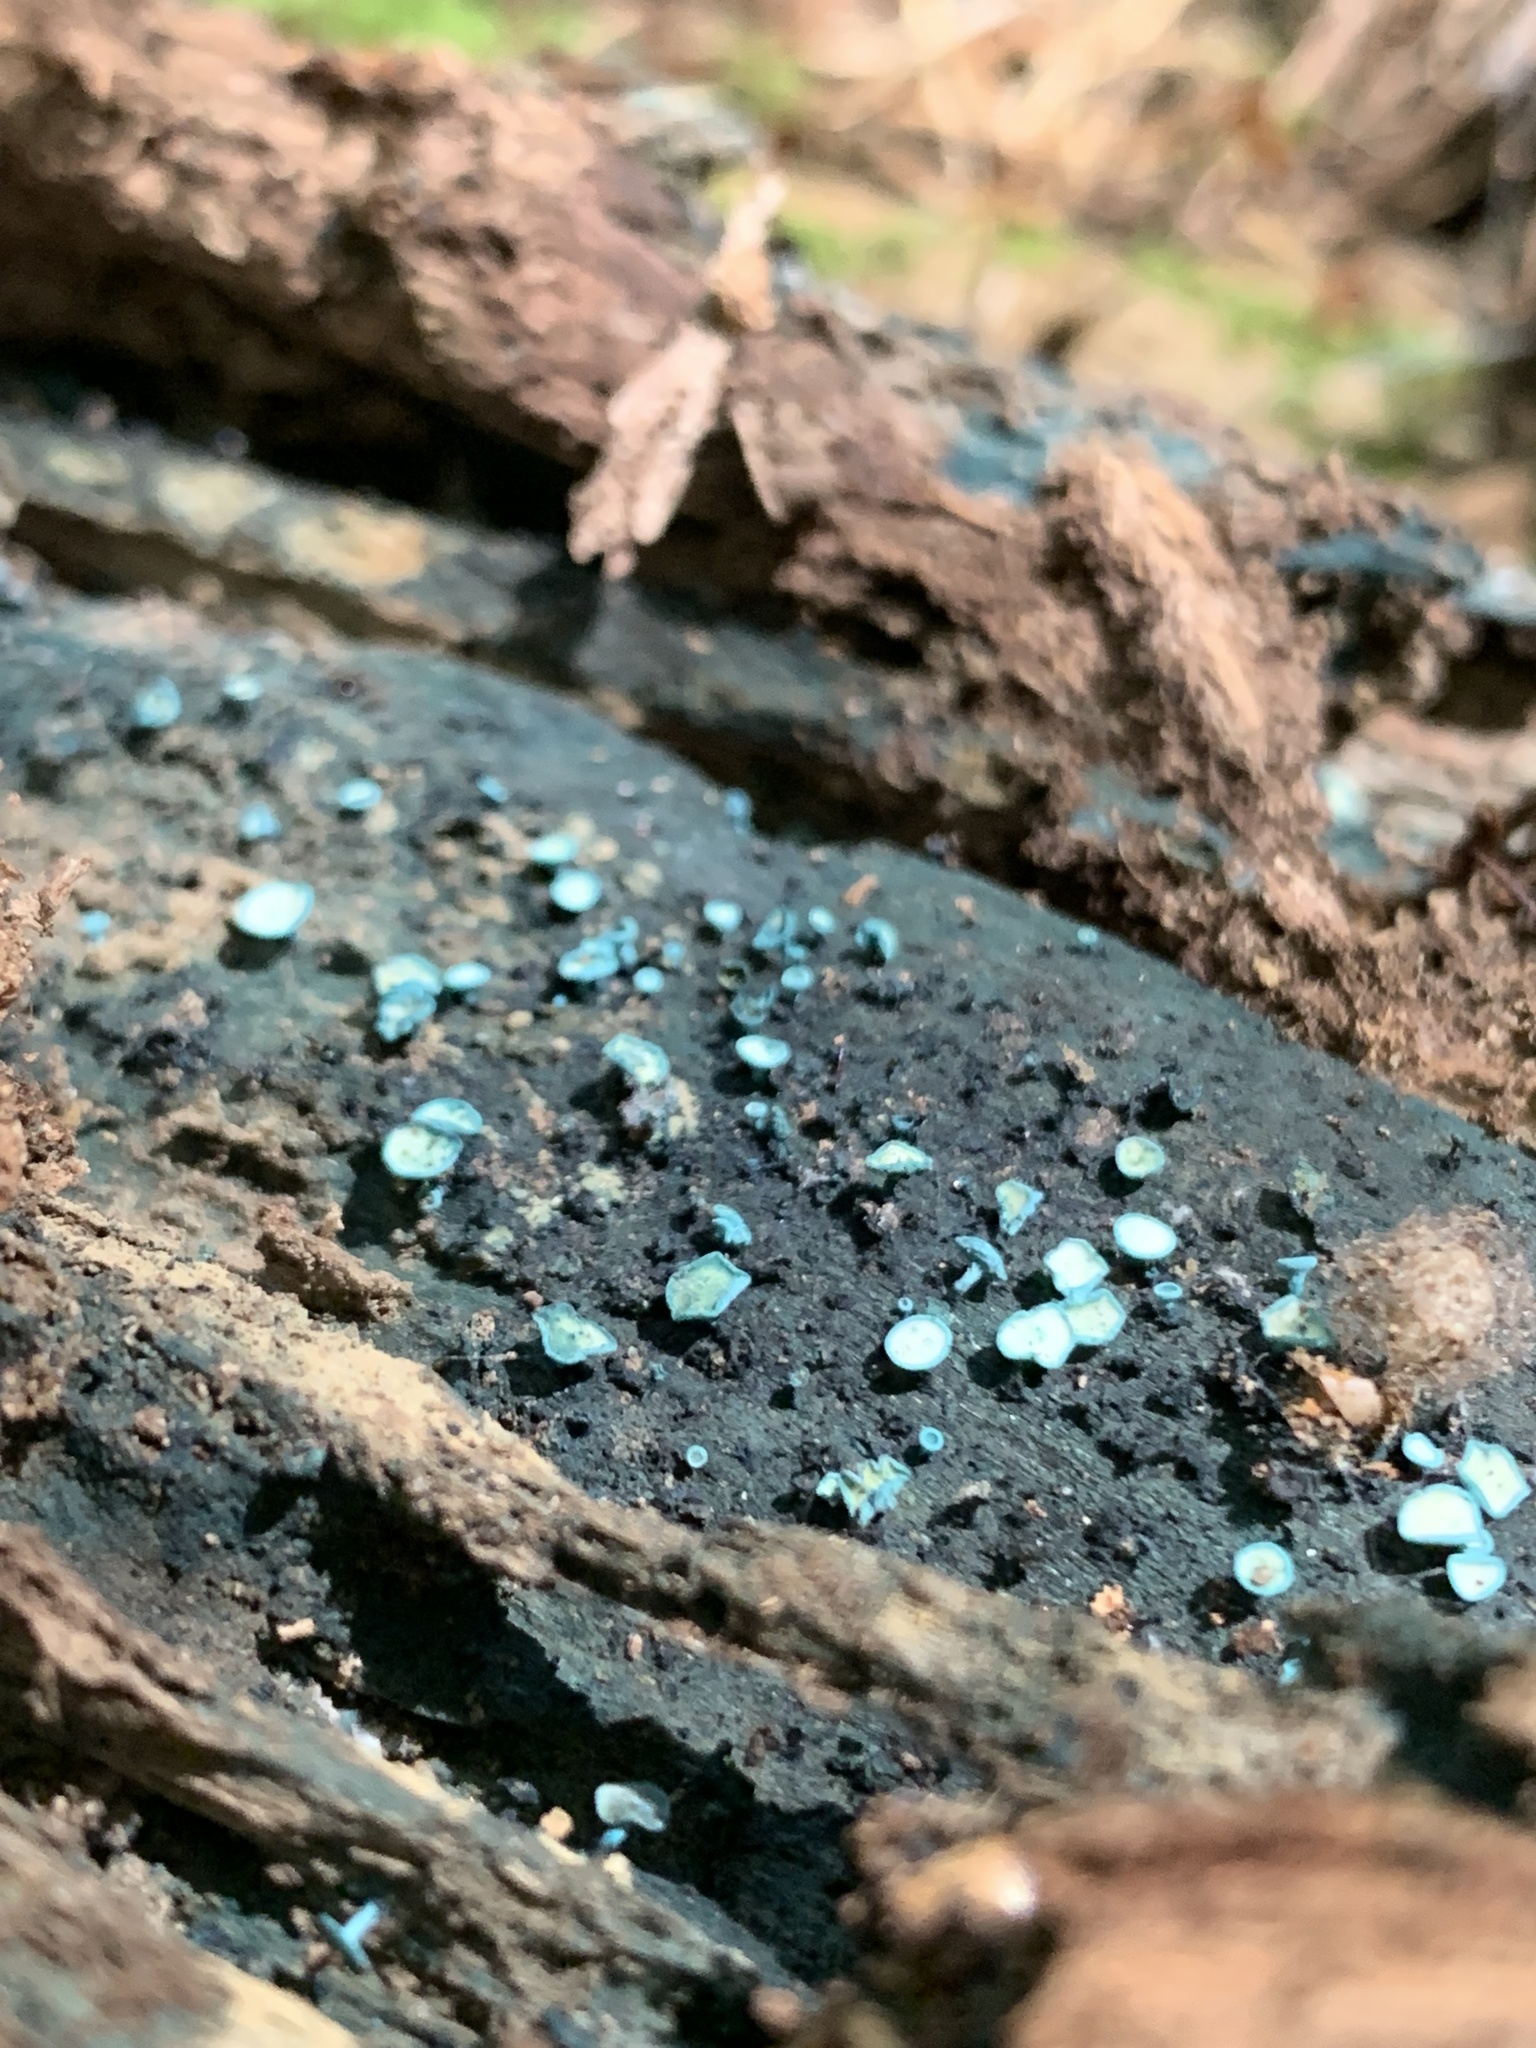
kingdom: Fungi
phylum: Ascomycota
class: Leotiomycetes
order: Helotiales
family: Chlorociboriaceae
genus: Chlorociboria
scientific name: Chlorociboria aeruginosa
